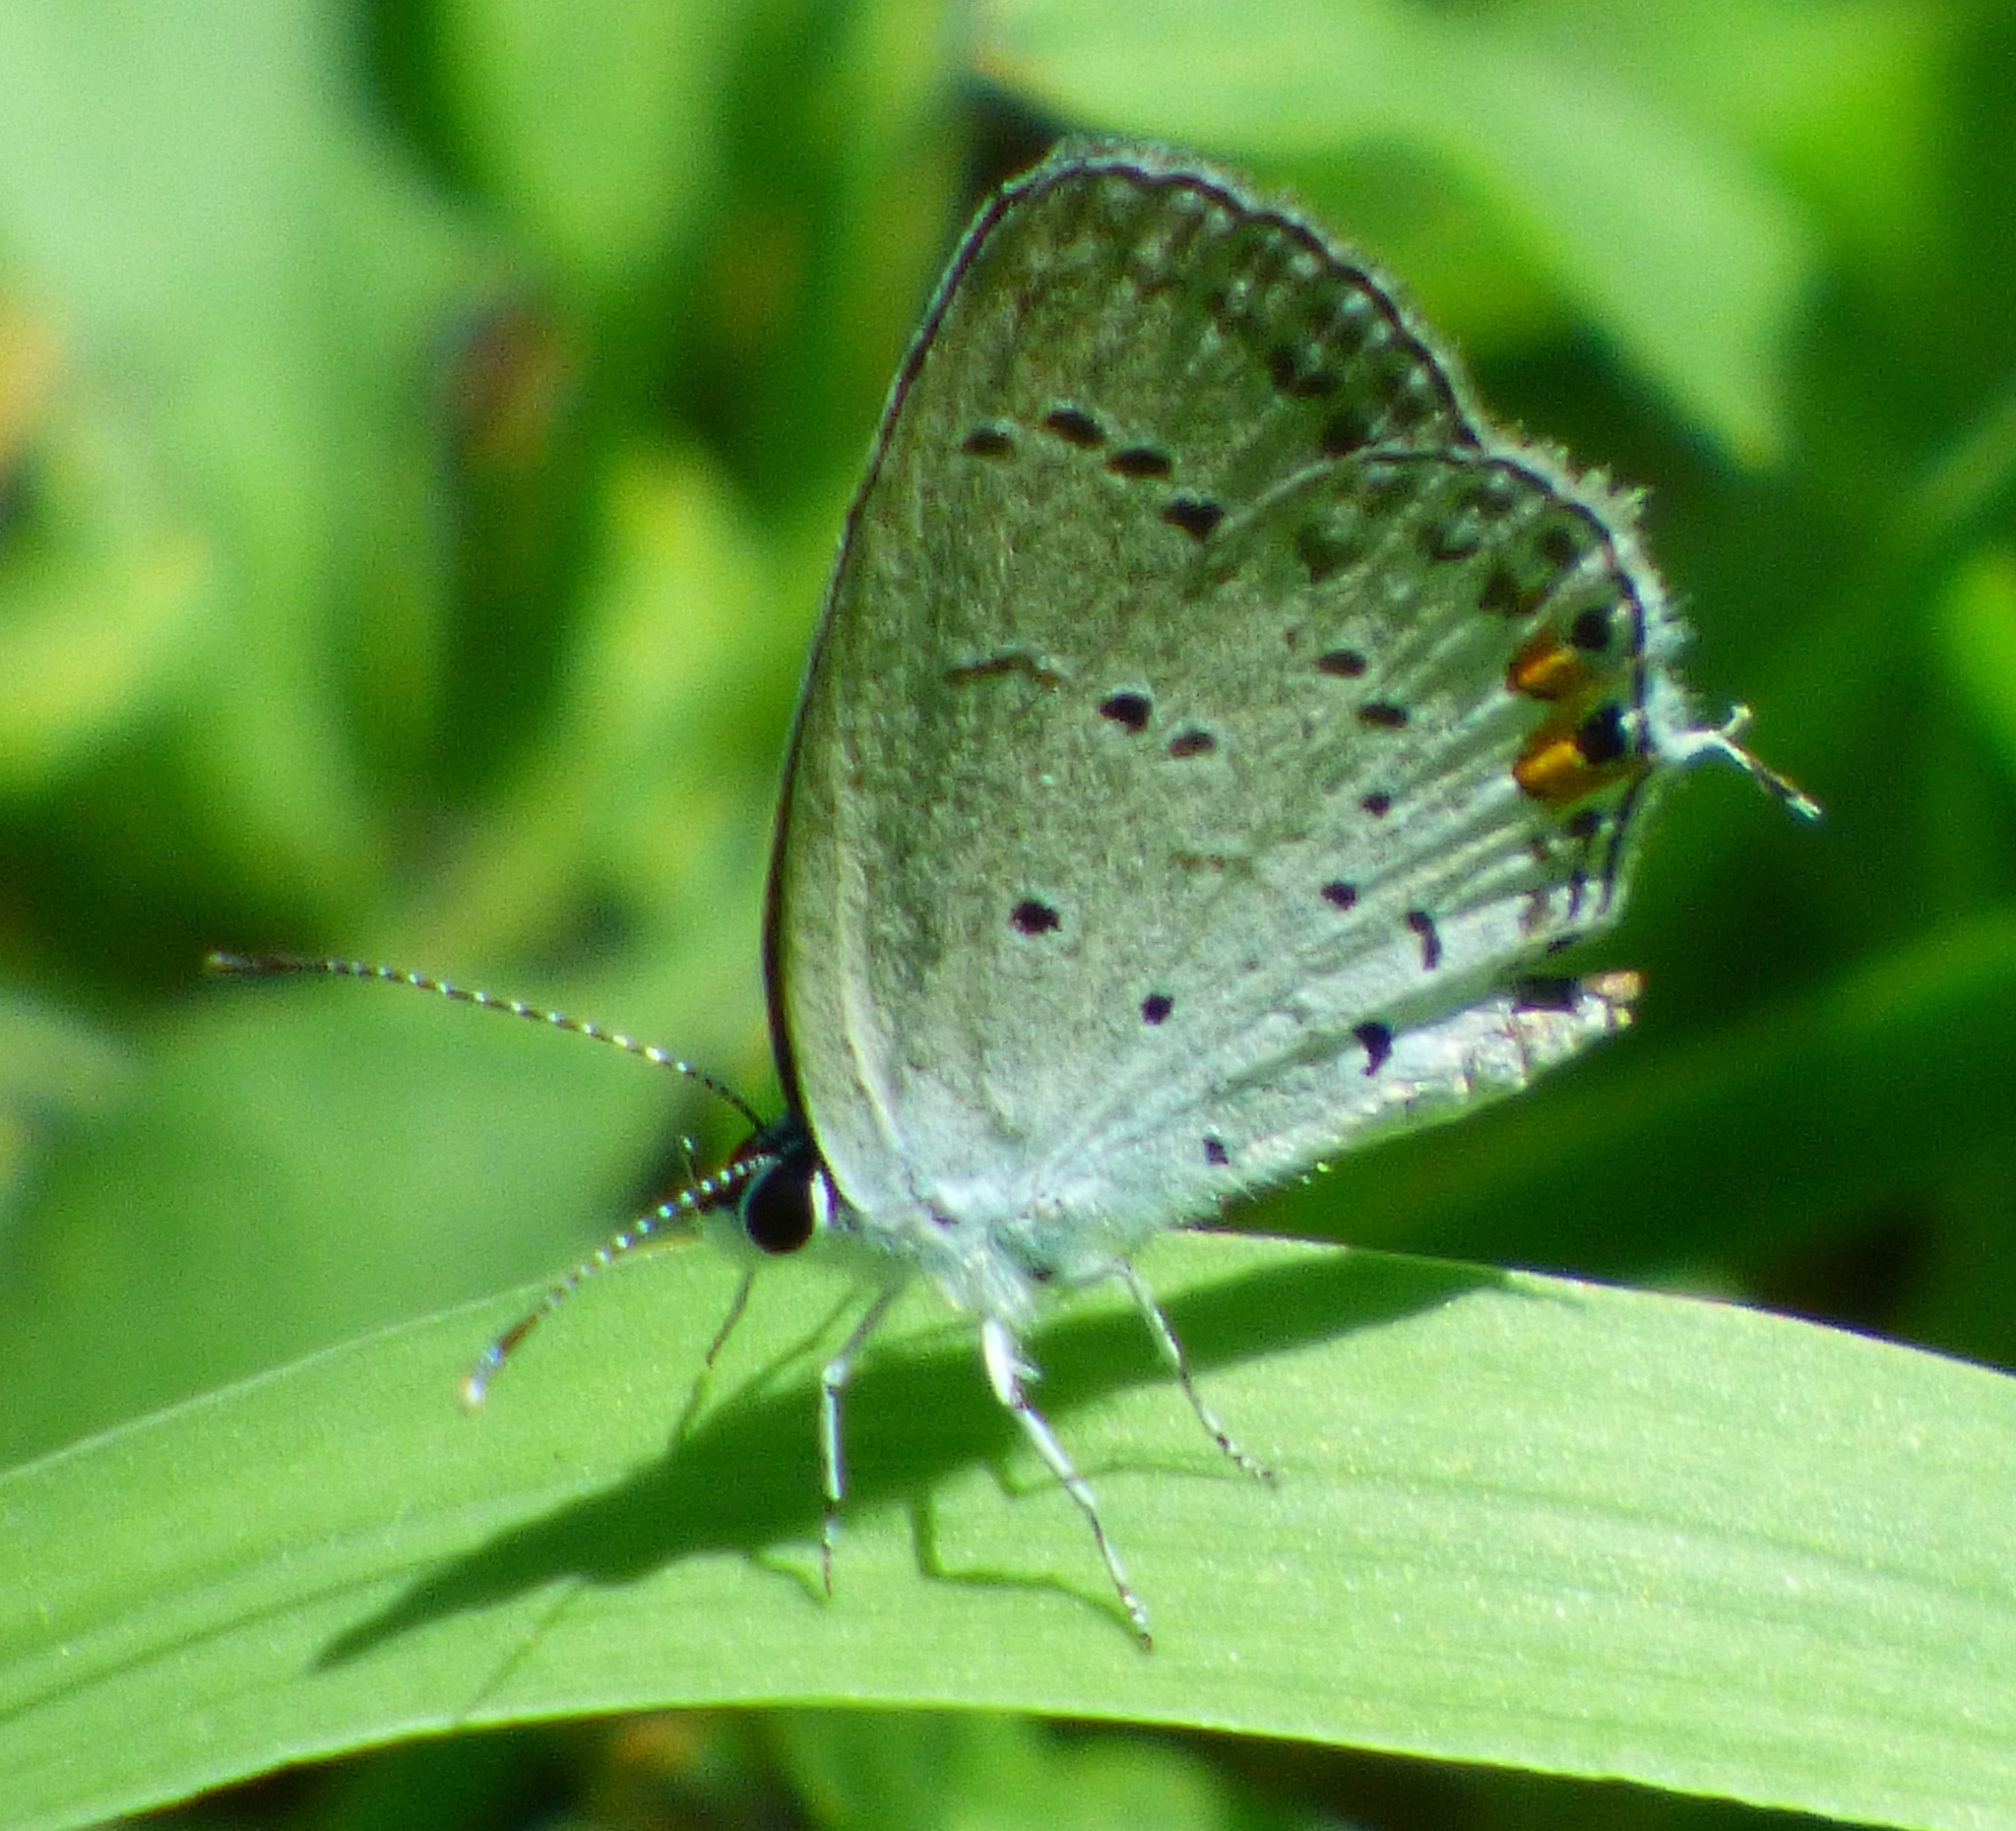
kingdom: Animalia
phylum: Arthropoda
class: Insecta
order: Lepidoptera
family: Lycaenidae
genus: Elkalyce
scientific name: Elkalyce comyntas
